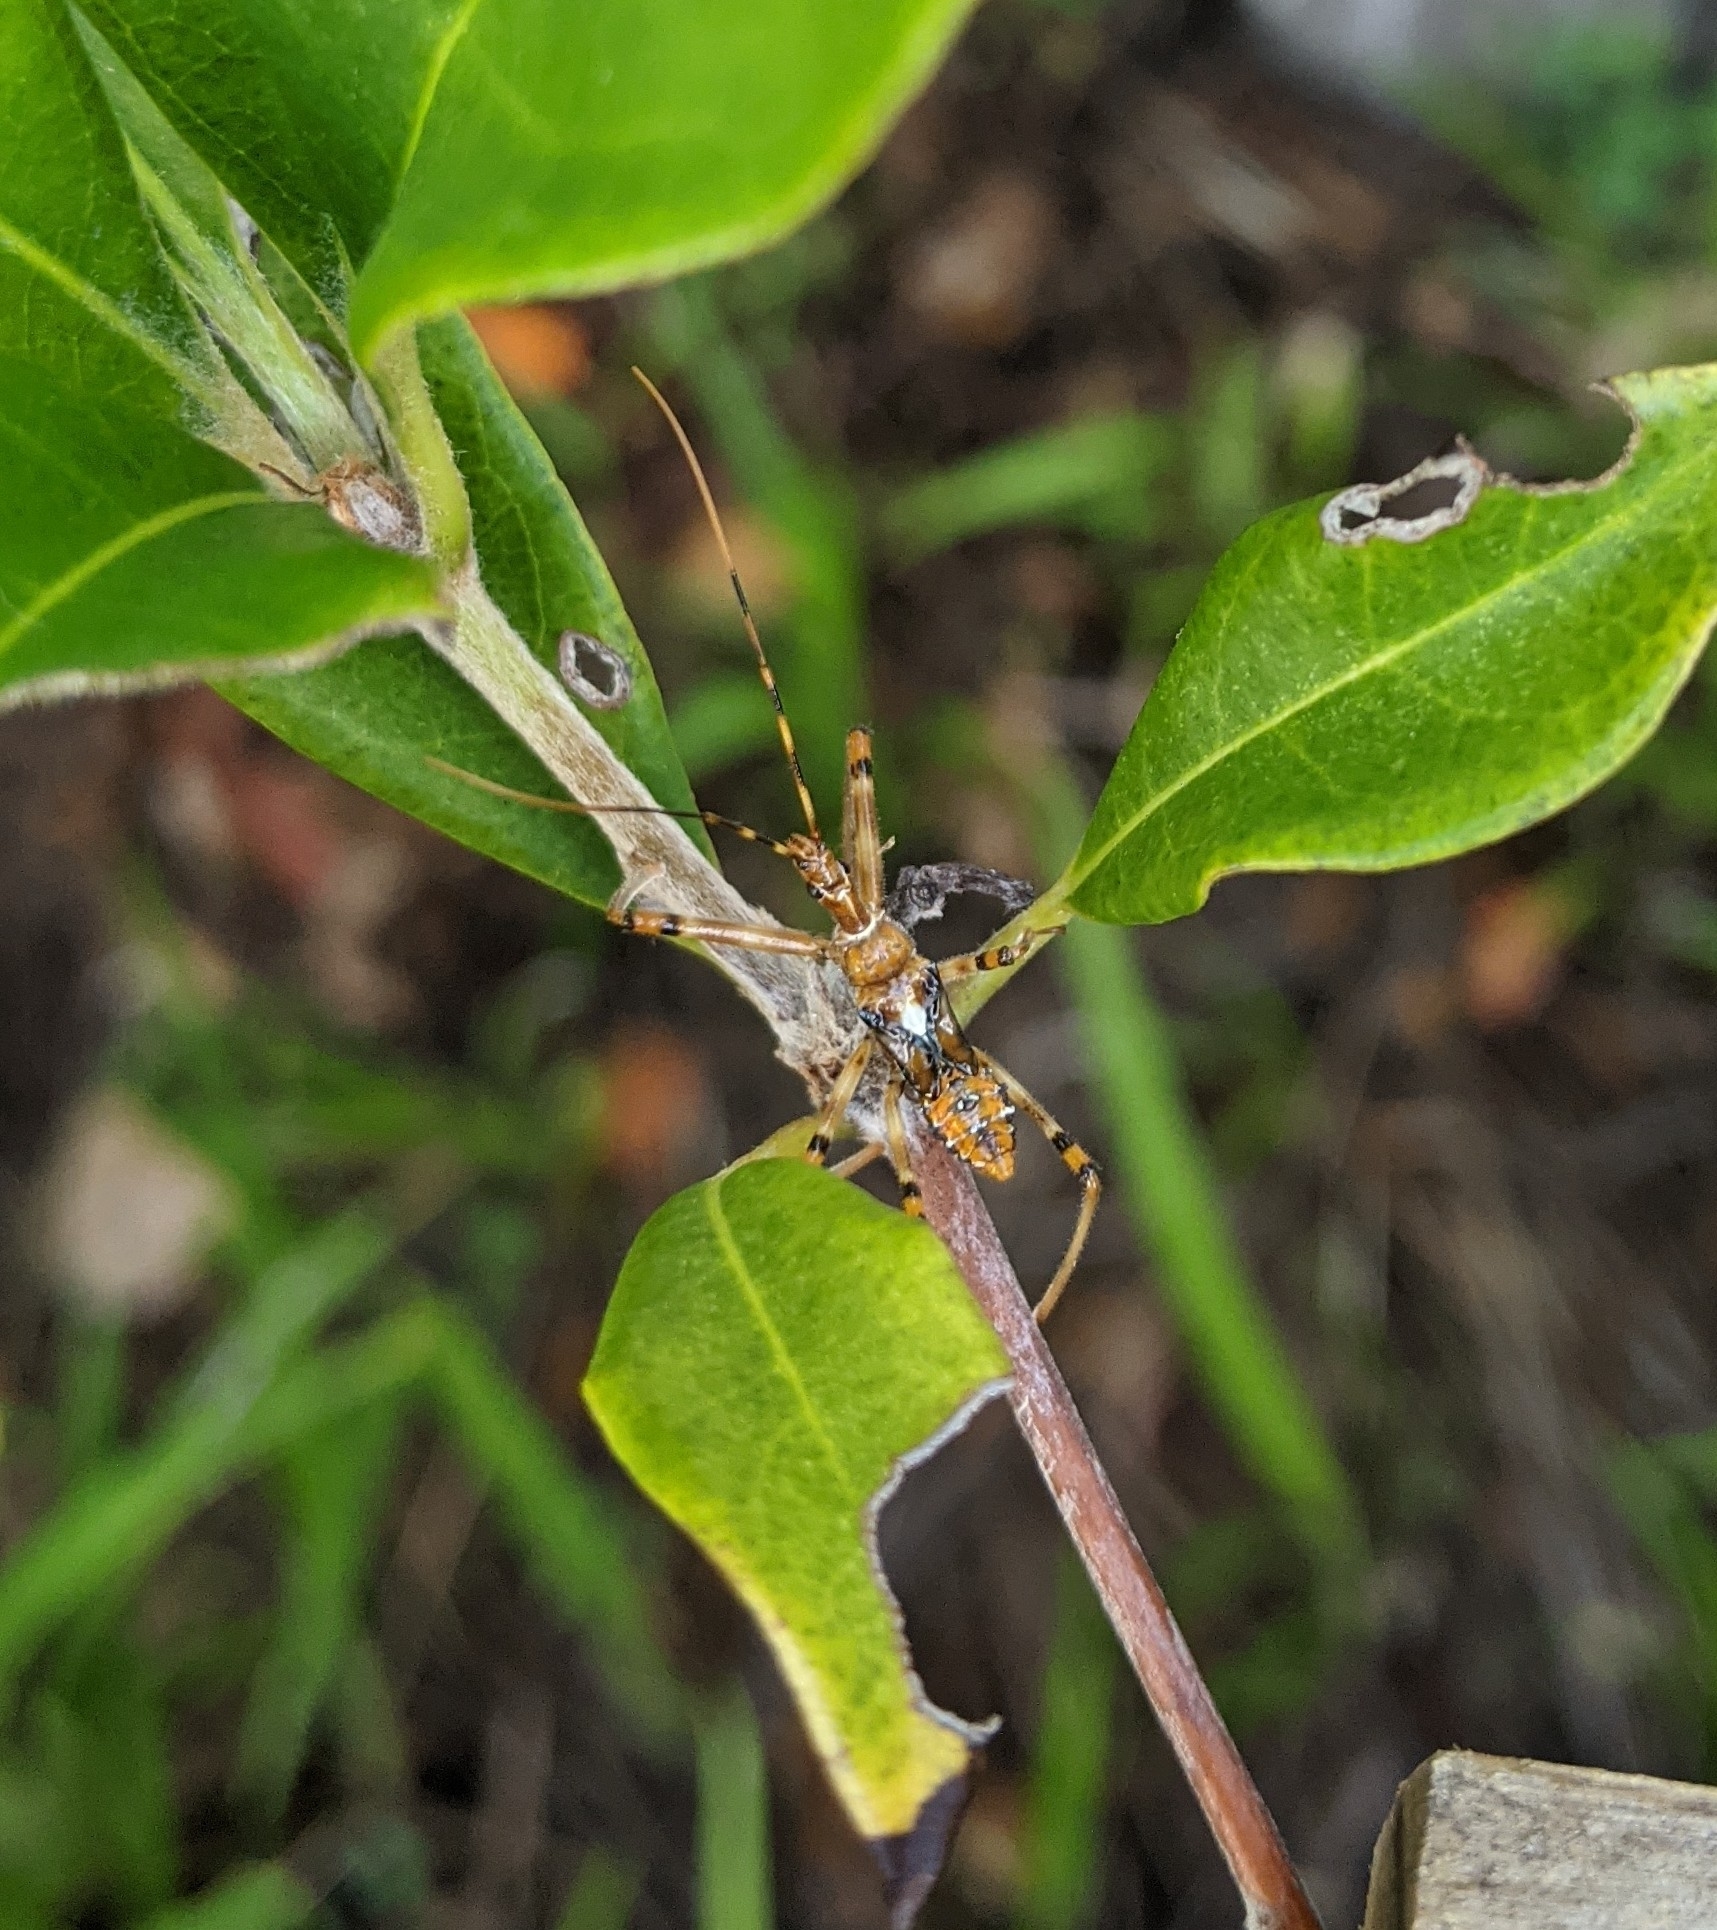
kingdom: Animalia
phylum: Arthropoda
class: Insecta
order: Hemiptera
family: Reduviidae
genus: Pristhesancus
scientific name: Pristhesancus plagipennis
